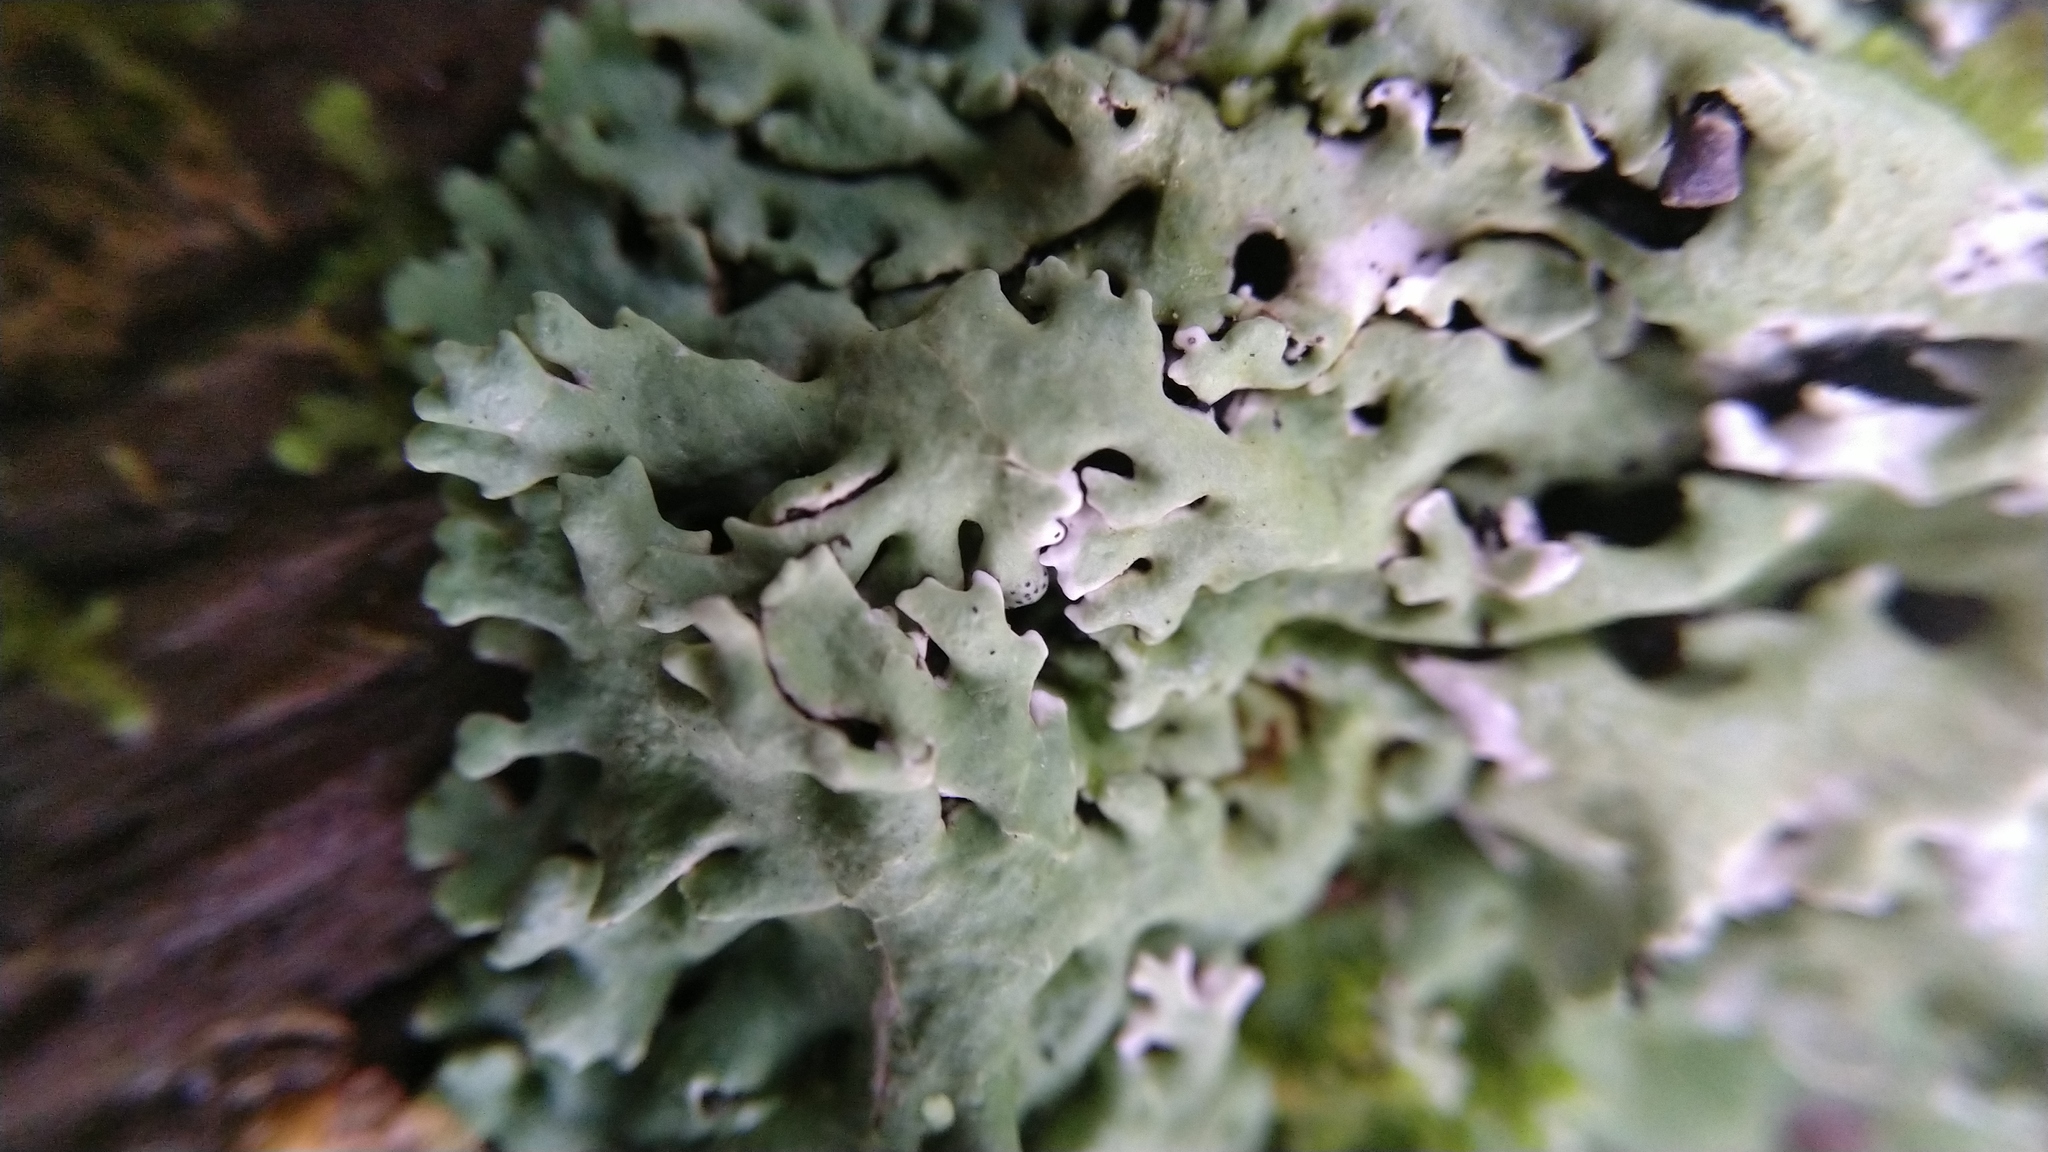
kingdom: Fungi
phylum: Ascomycota
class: Lecanoromycetes
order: Lecanorales
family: Parmeliaceae
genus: Hypogymnia
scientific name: Hypogymnia physodes
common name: Dark crottle
